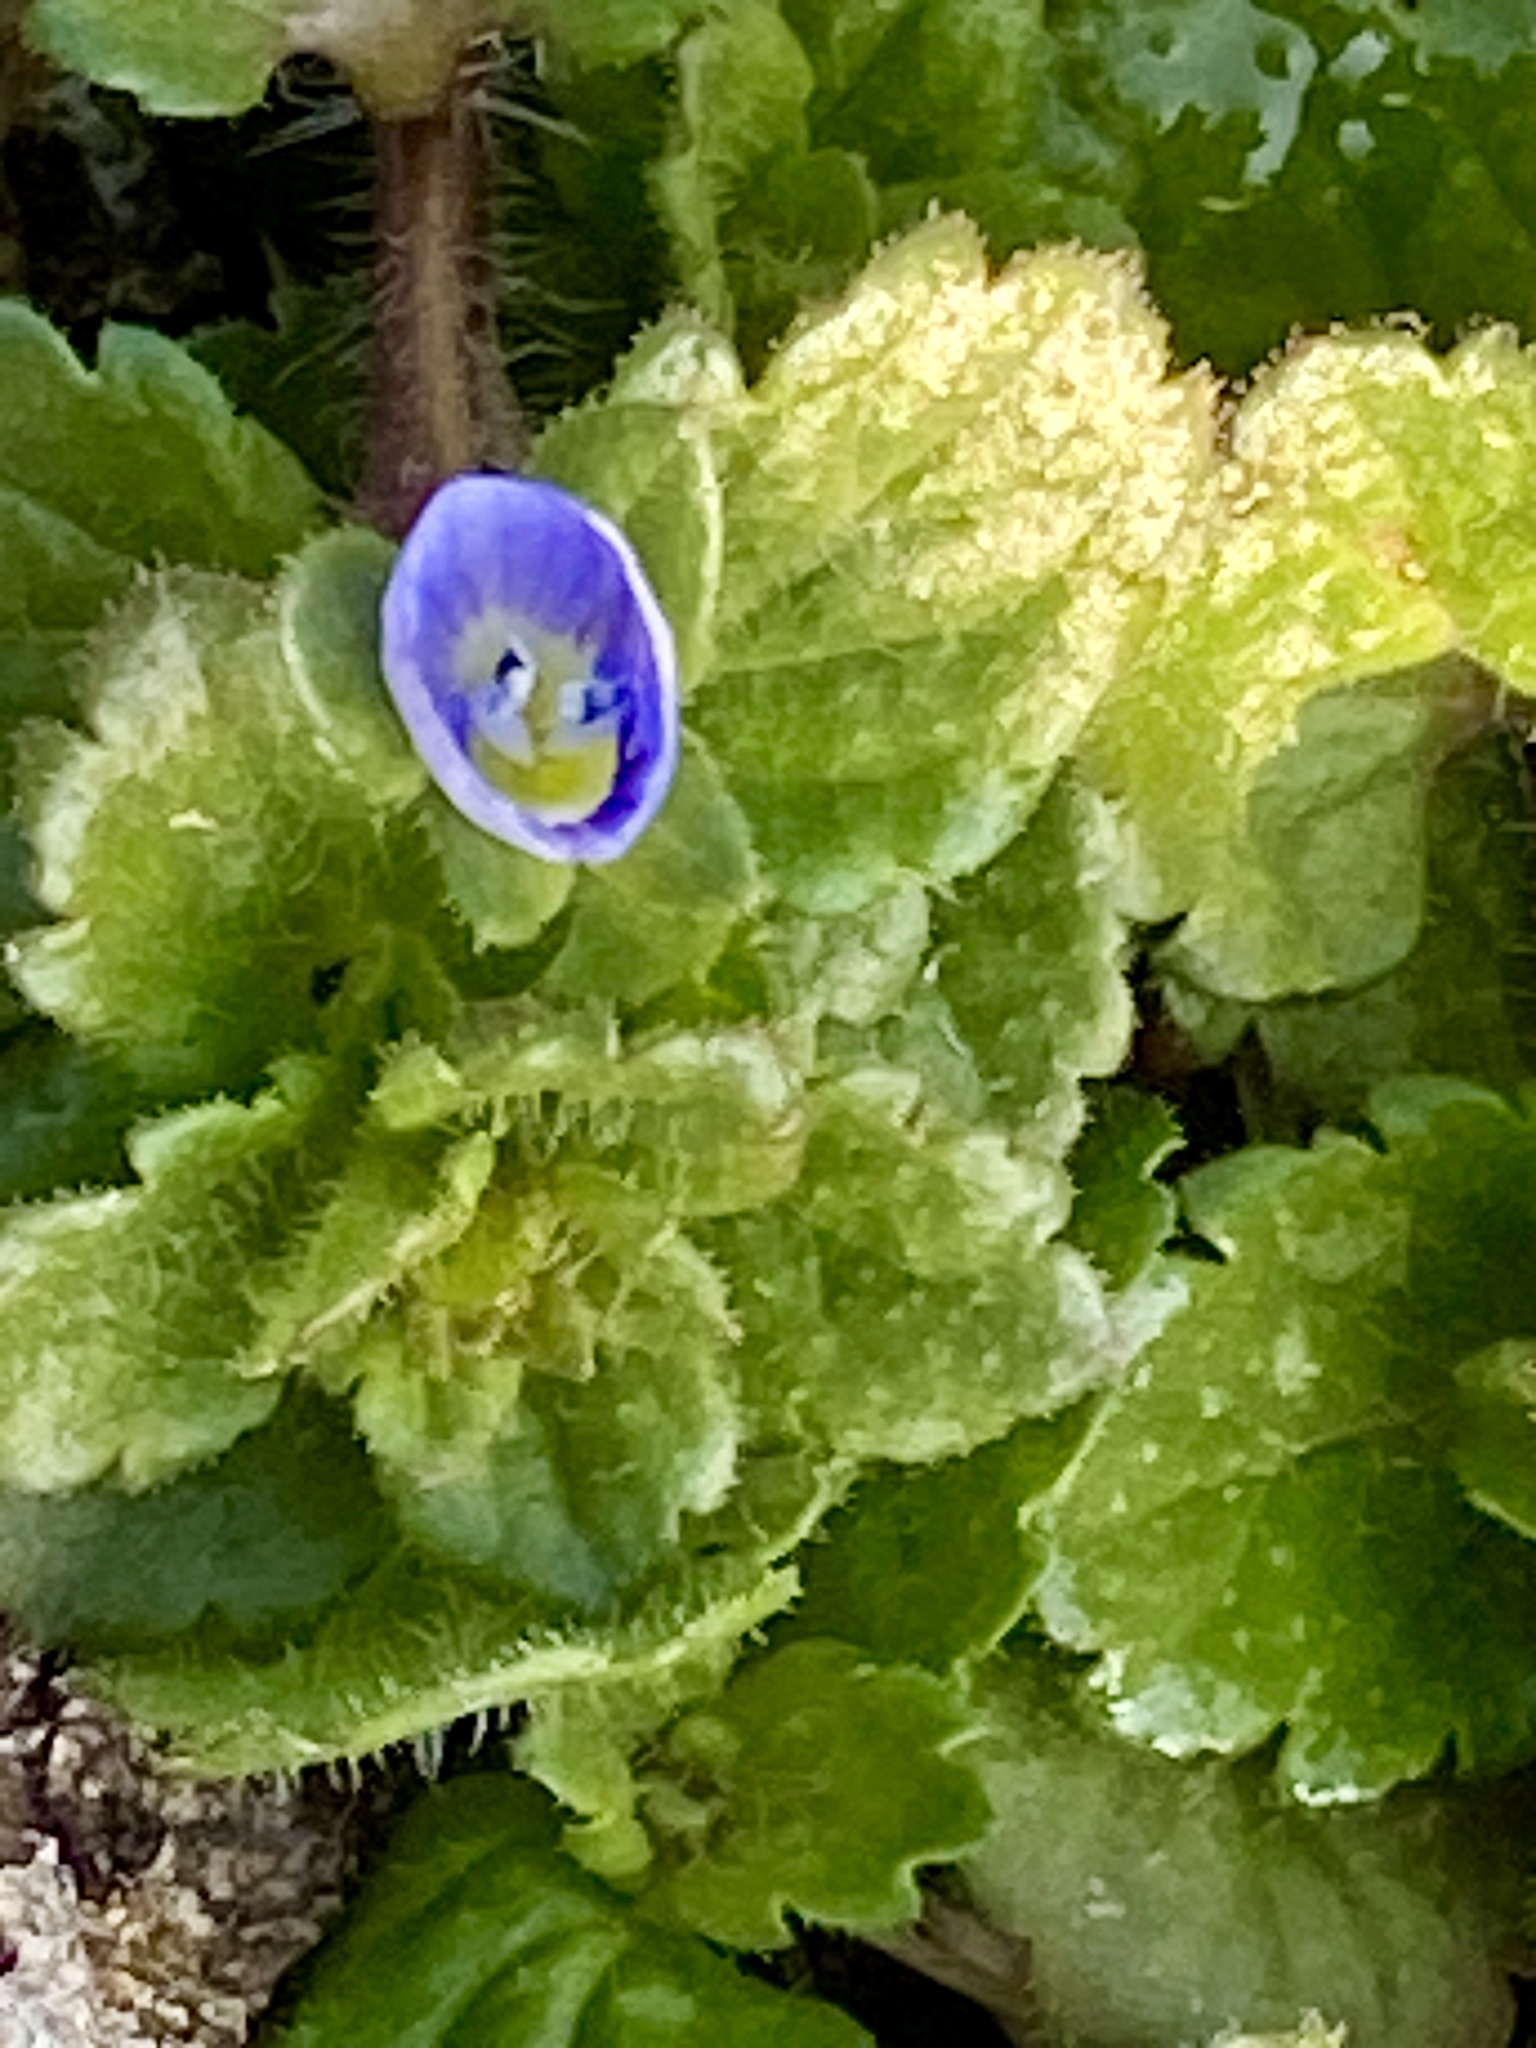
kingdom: Plantae
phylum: Tracheophyta
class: Magnoliopsida
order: Lamiales
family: Plantaginaceae
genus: Veronica
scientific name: Veronica persica
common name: Common field-speedwell
